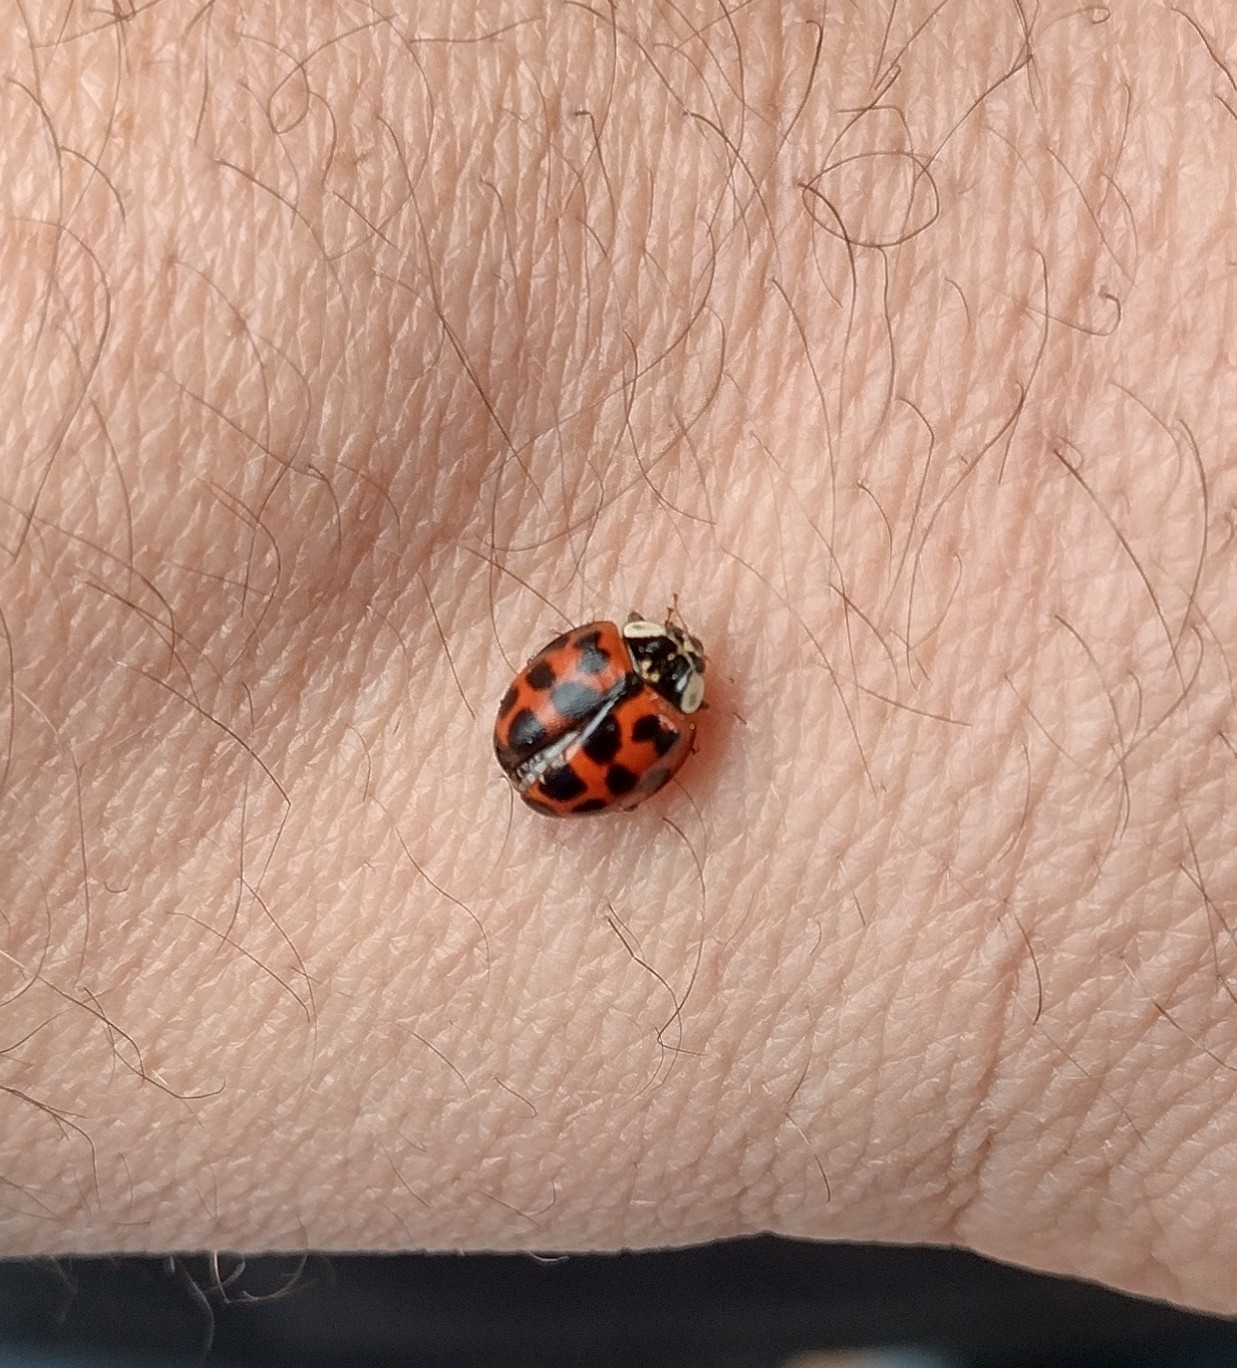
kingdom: Animalia
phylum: Arthropoda
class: Insecta
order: Coleoptera
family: Coccinellidae
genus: Harmonia
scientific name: Harmonia axyridis
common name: Harlequin ladybird
